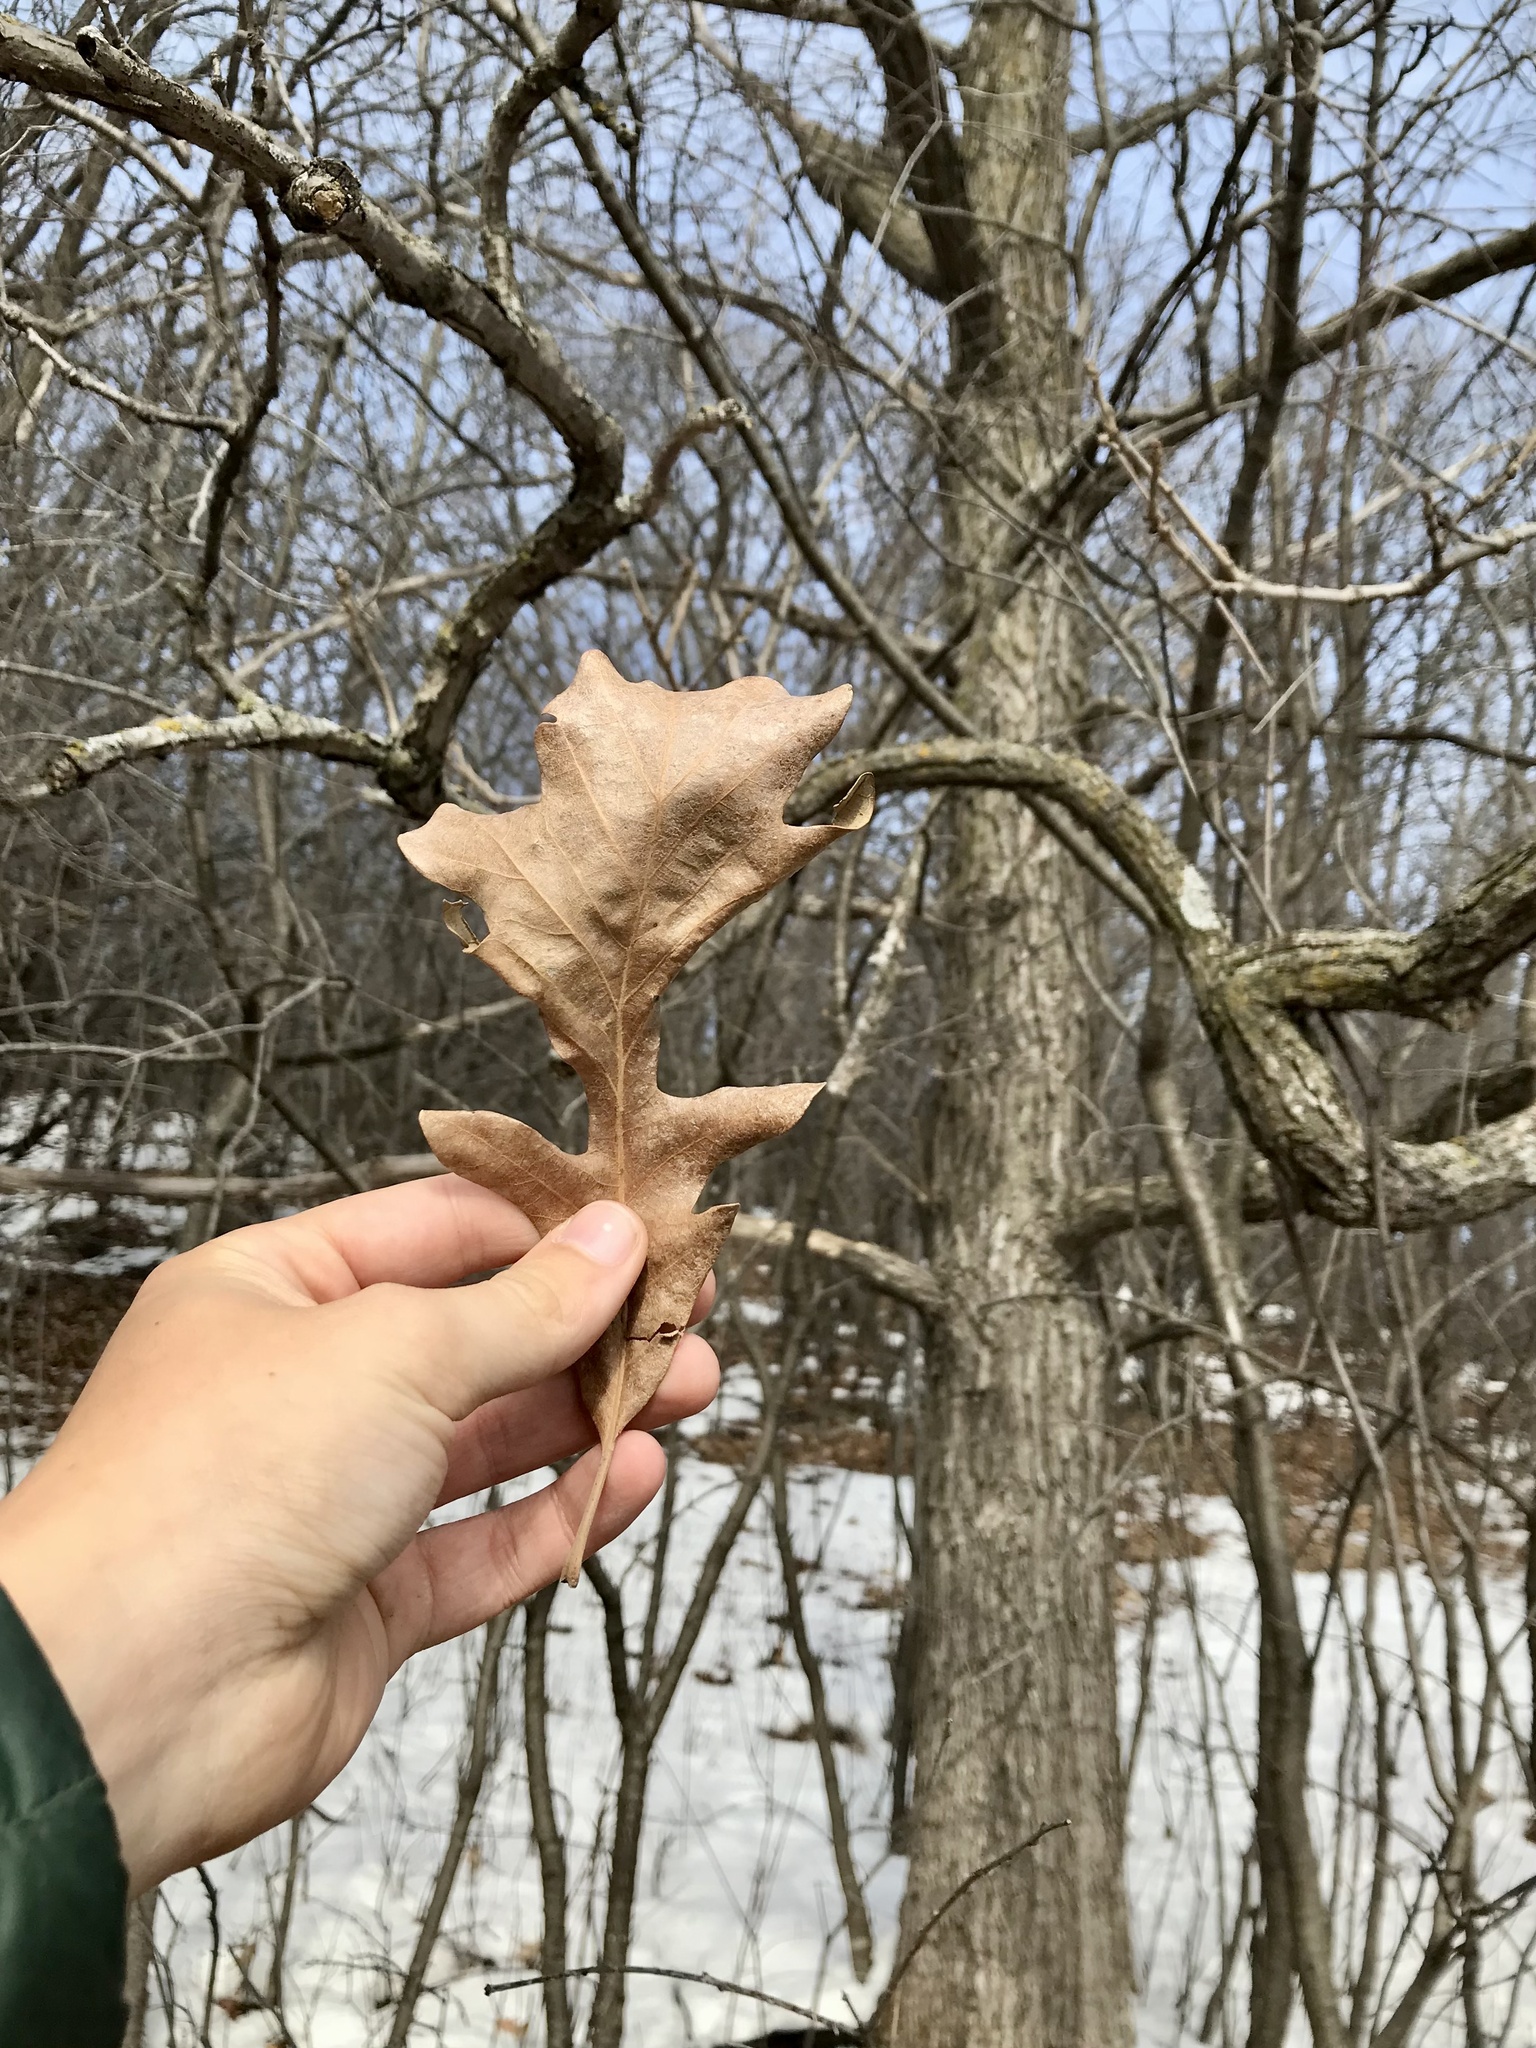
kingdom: Plantae
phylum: Tracheophyta
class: Magnoliopsida
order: Fagales
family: Fagaceae
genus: Quercus
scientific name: Quercus macrocarpa
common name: Bur oak
